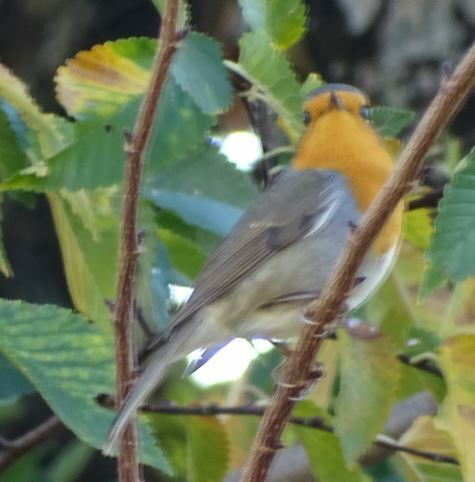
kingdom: Animalia
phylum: Chordata
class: Aves
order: Passeriformes
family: Muscicapidae
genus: Erithacus
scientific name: Erithacus rubecula
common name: European robin
